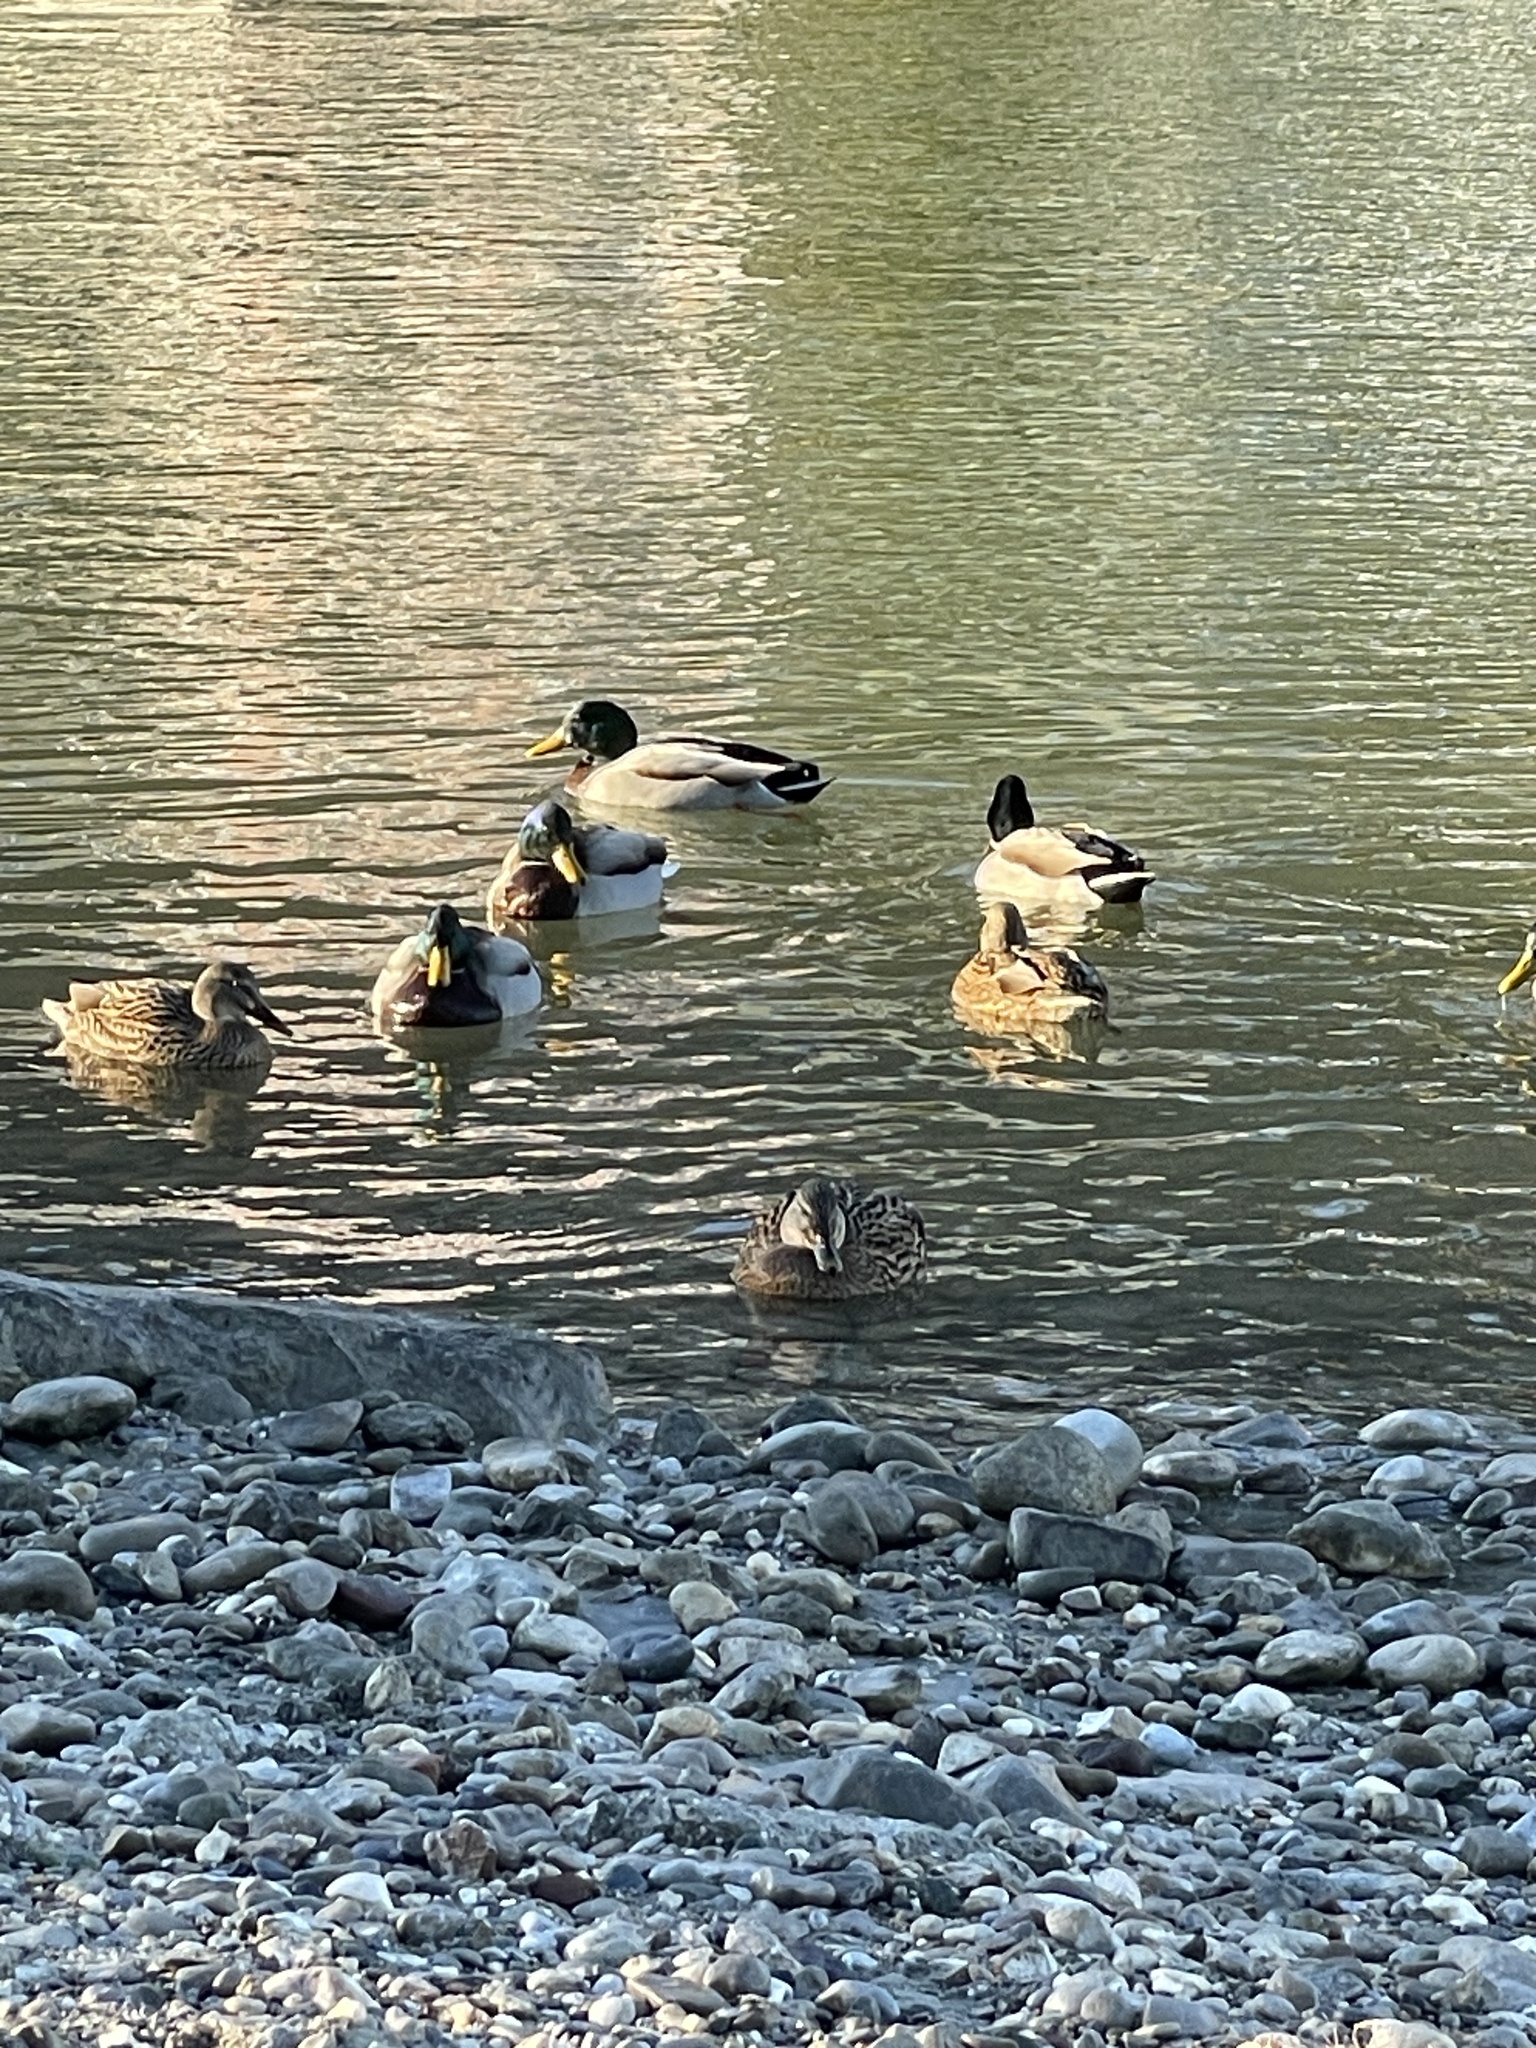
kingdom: Animalia
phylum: Chordata
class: Aves
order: Anseriformes
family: Anatidae
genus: Anas
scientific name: Anas platyrhynchos
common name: Mallard
